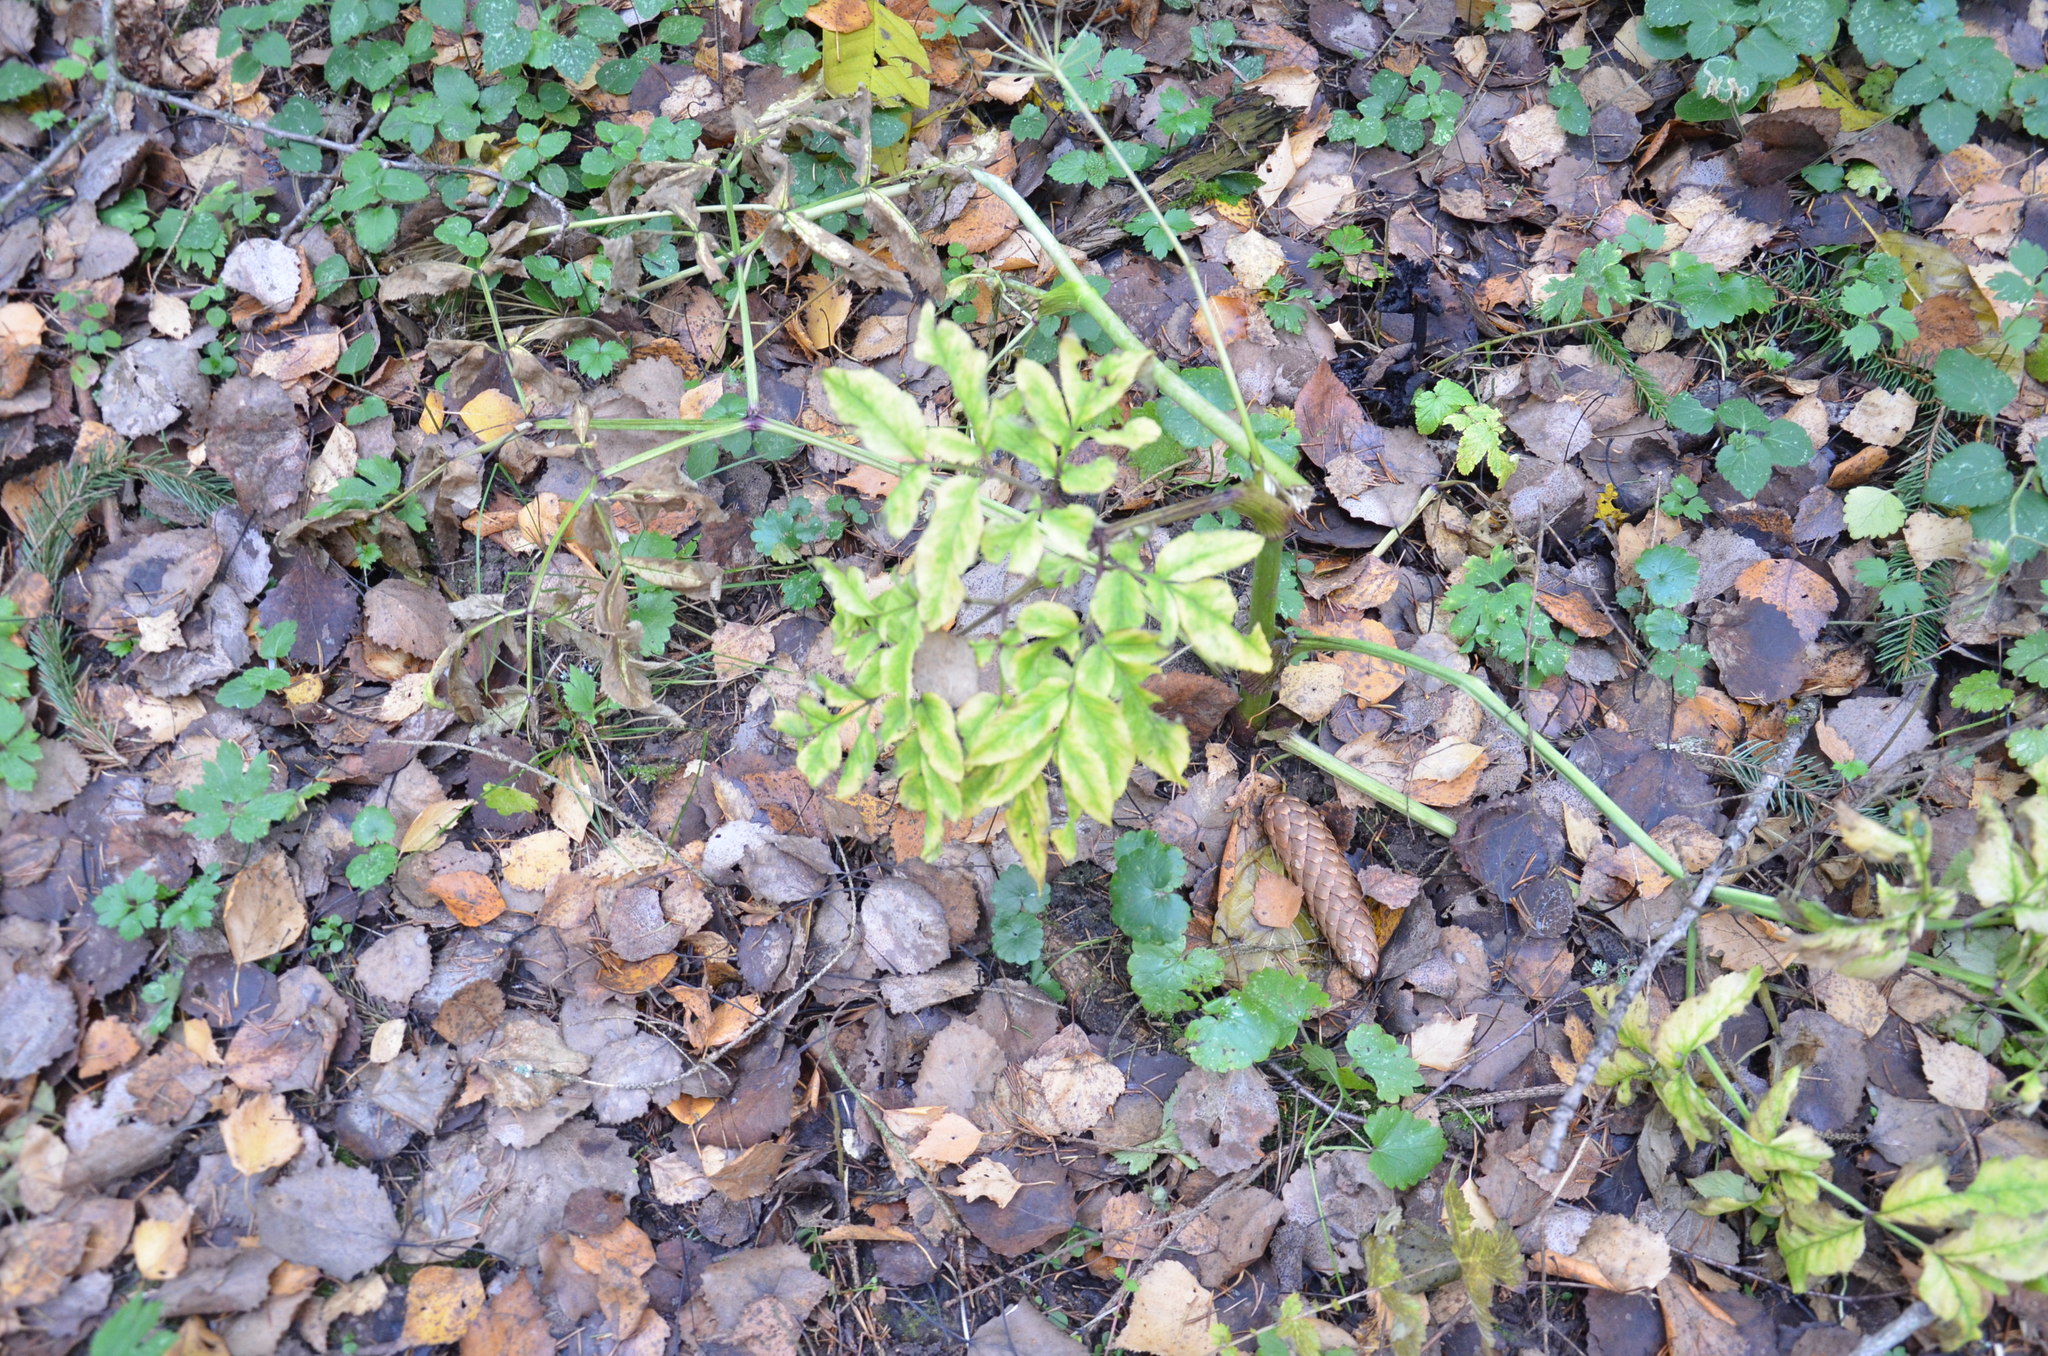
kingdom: Plantae
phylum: Tracheophyta
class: Magnoliopsida
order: Apiales
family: Apiaceae
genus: Angelica
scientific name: Angelica sylvestris
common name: Wild angelica
